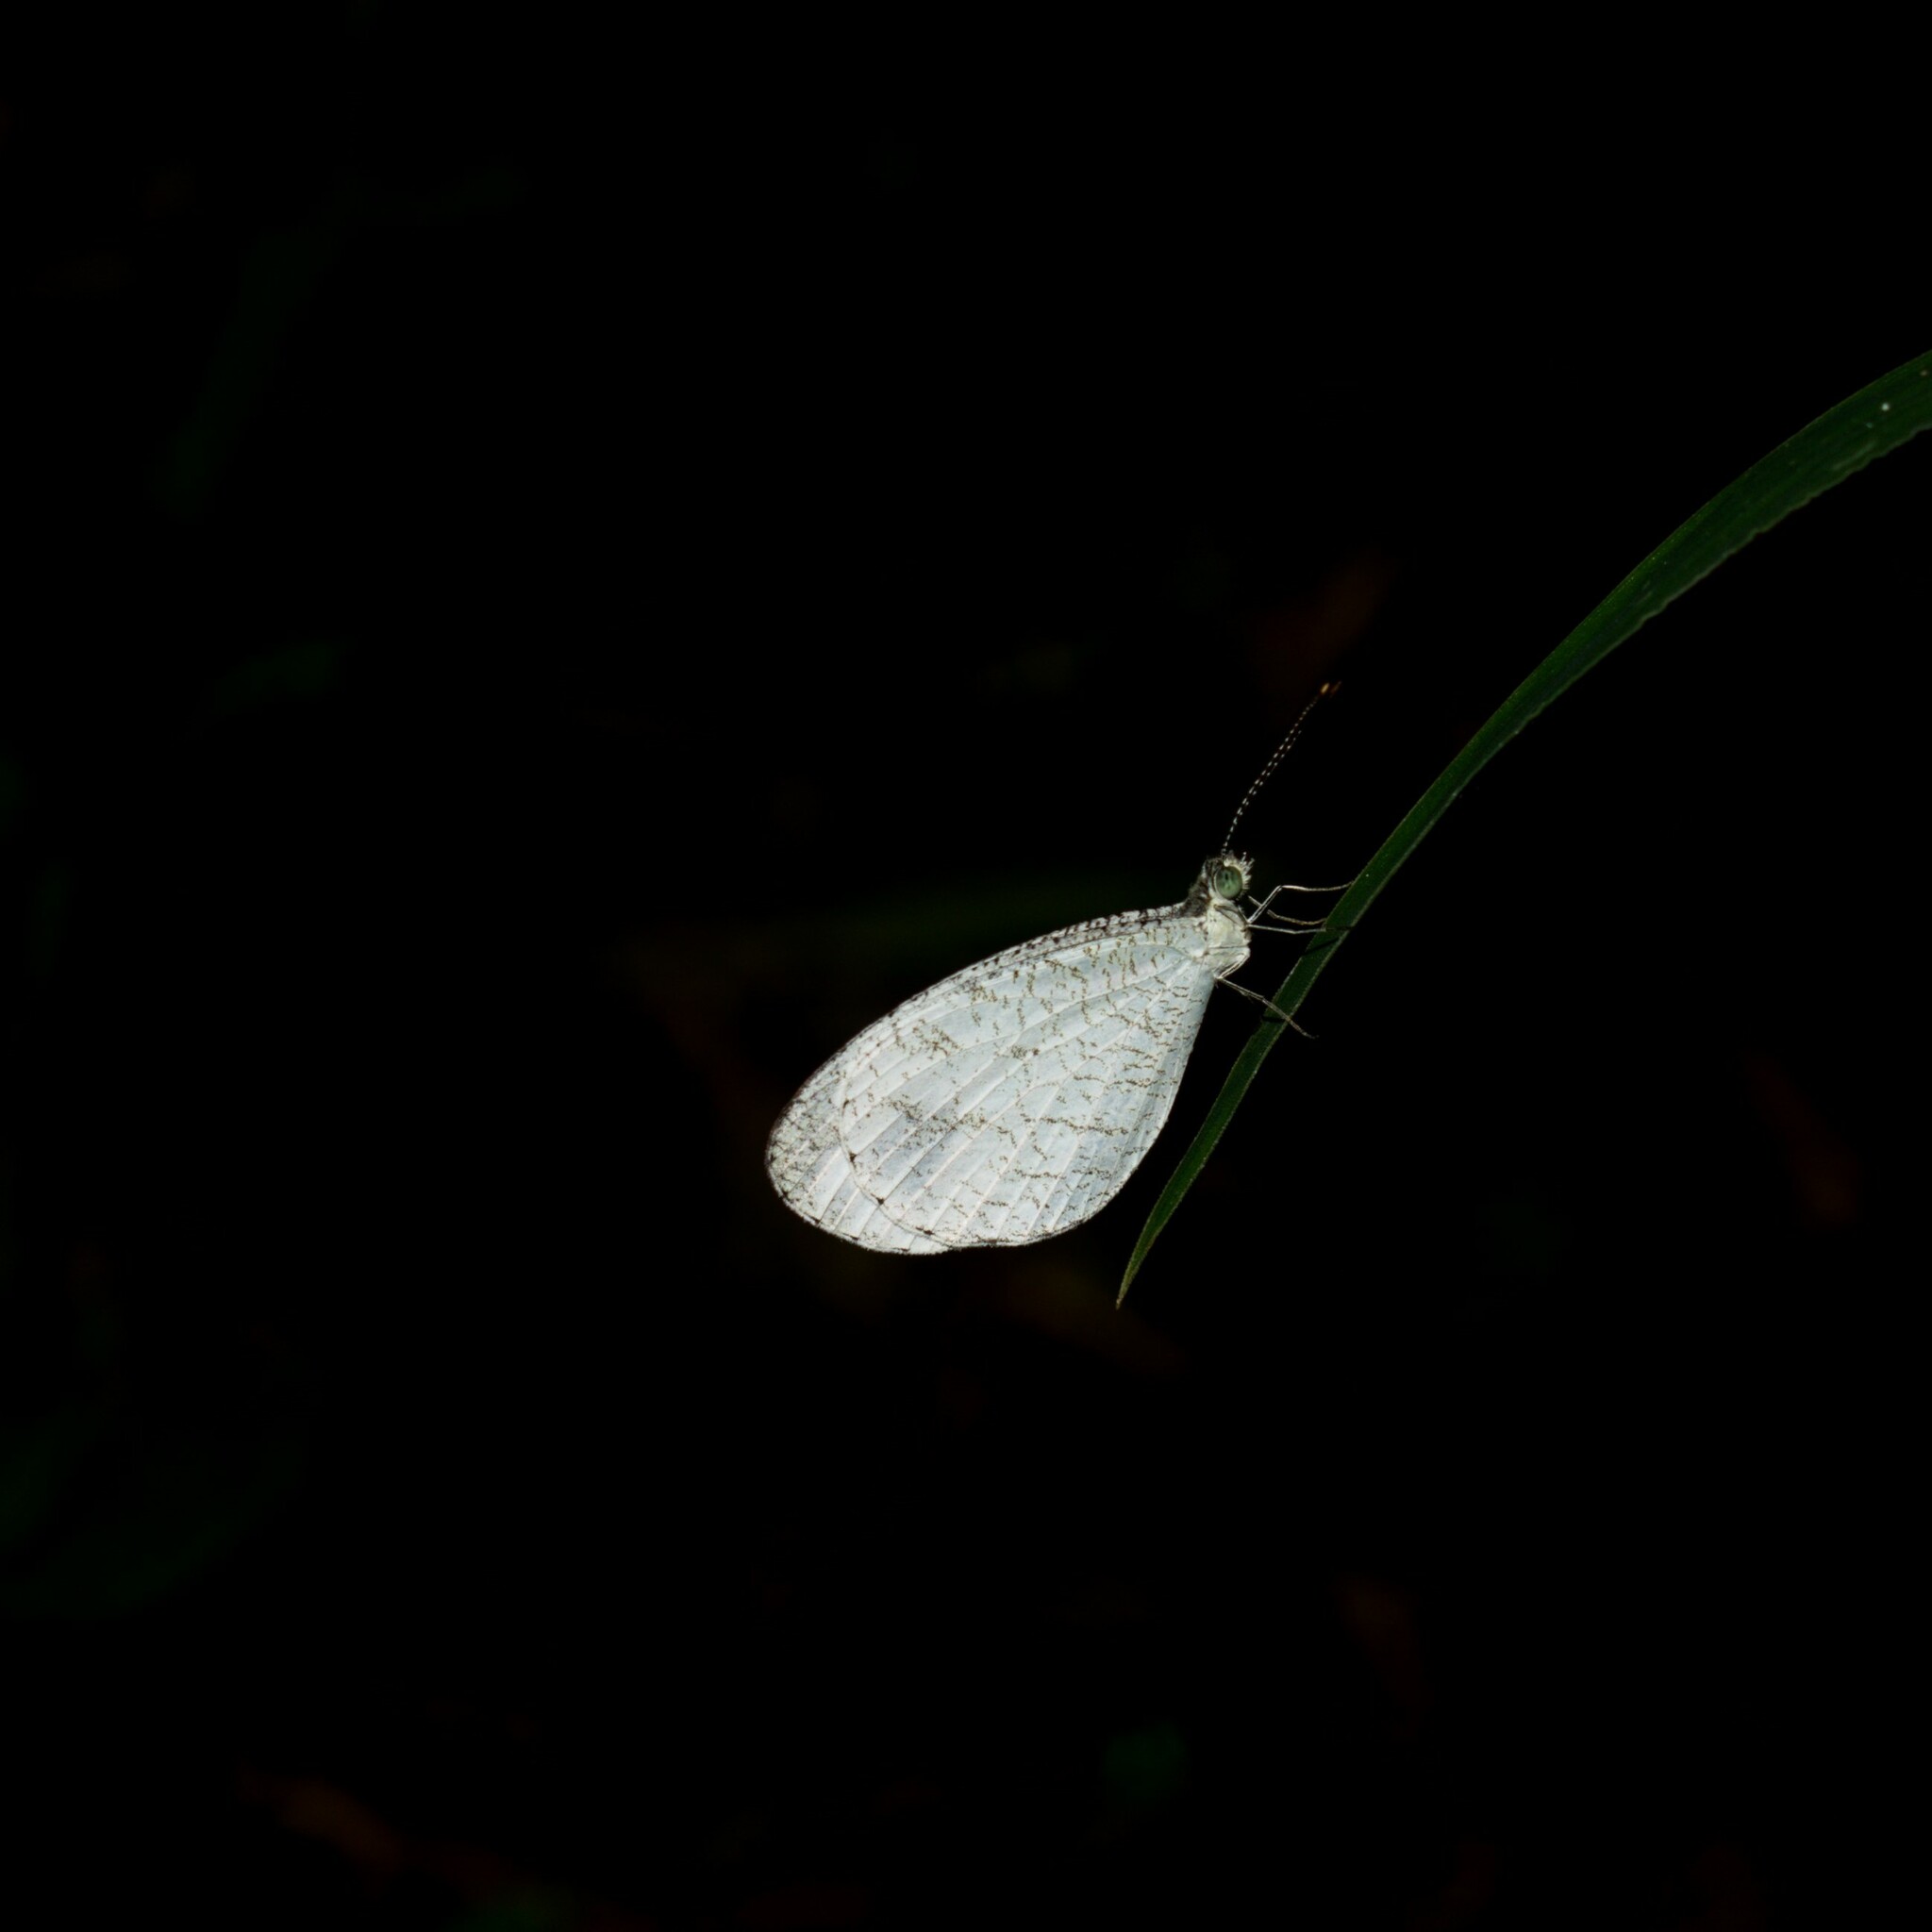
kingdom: Animalia
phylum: Arthropoda
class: Insecta
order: Lepidoptera
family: Pieridae
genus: Leptosia
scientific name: Leptosia nina
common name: Psyche
